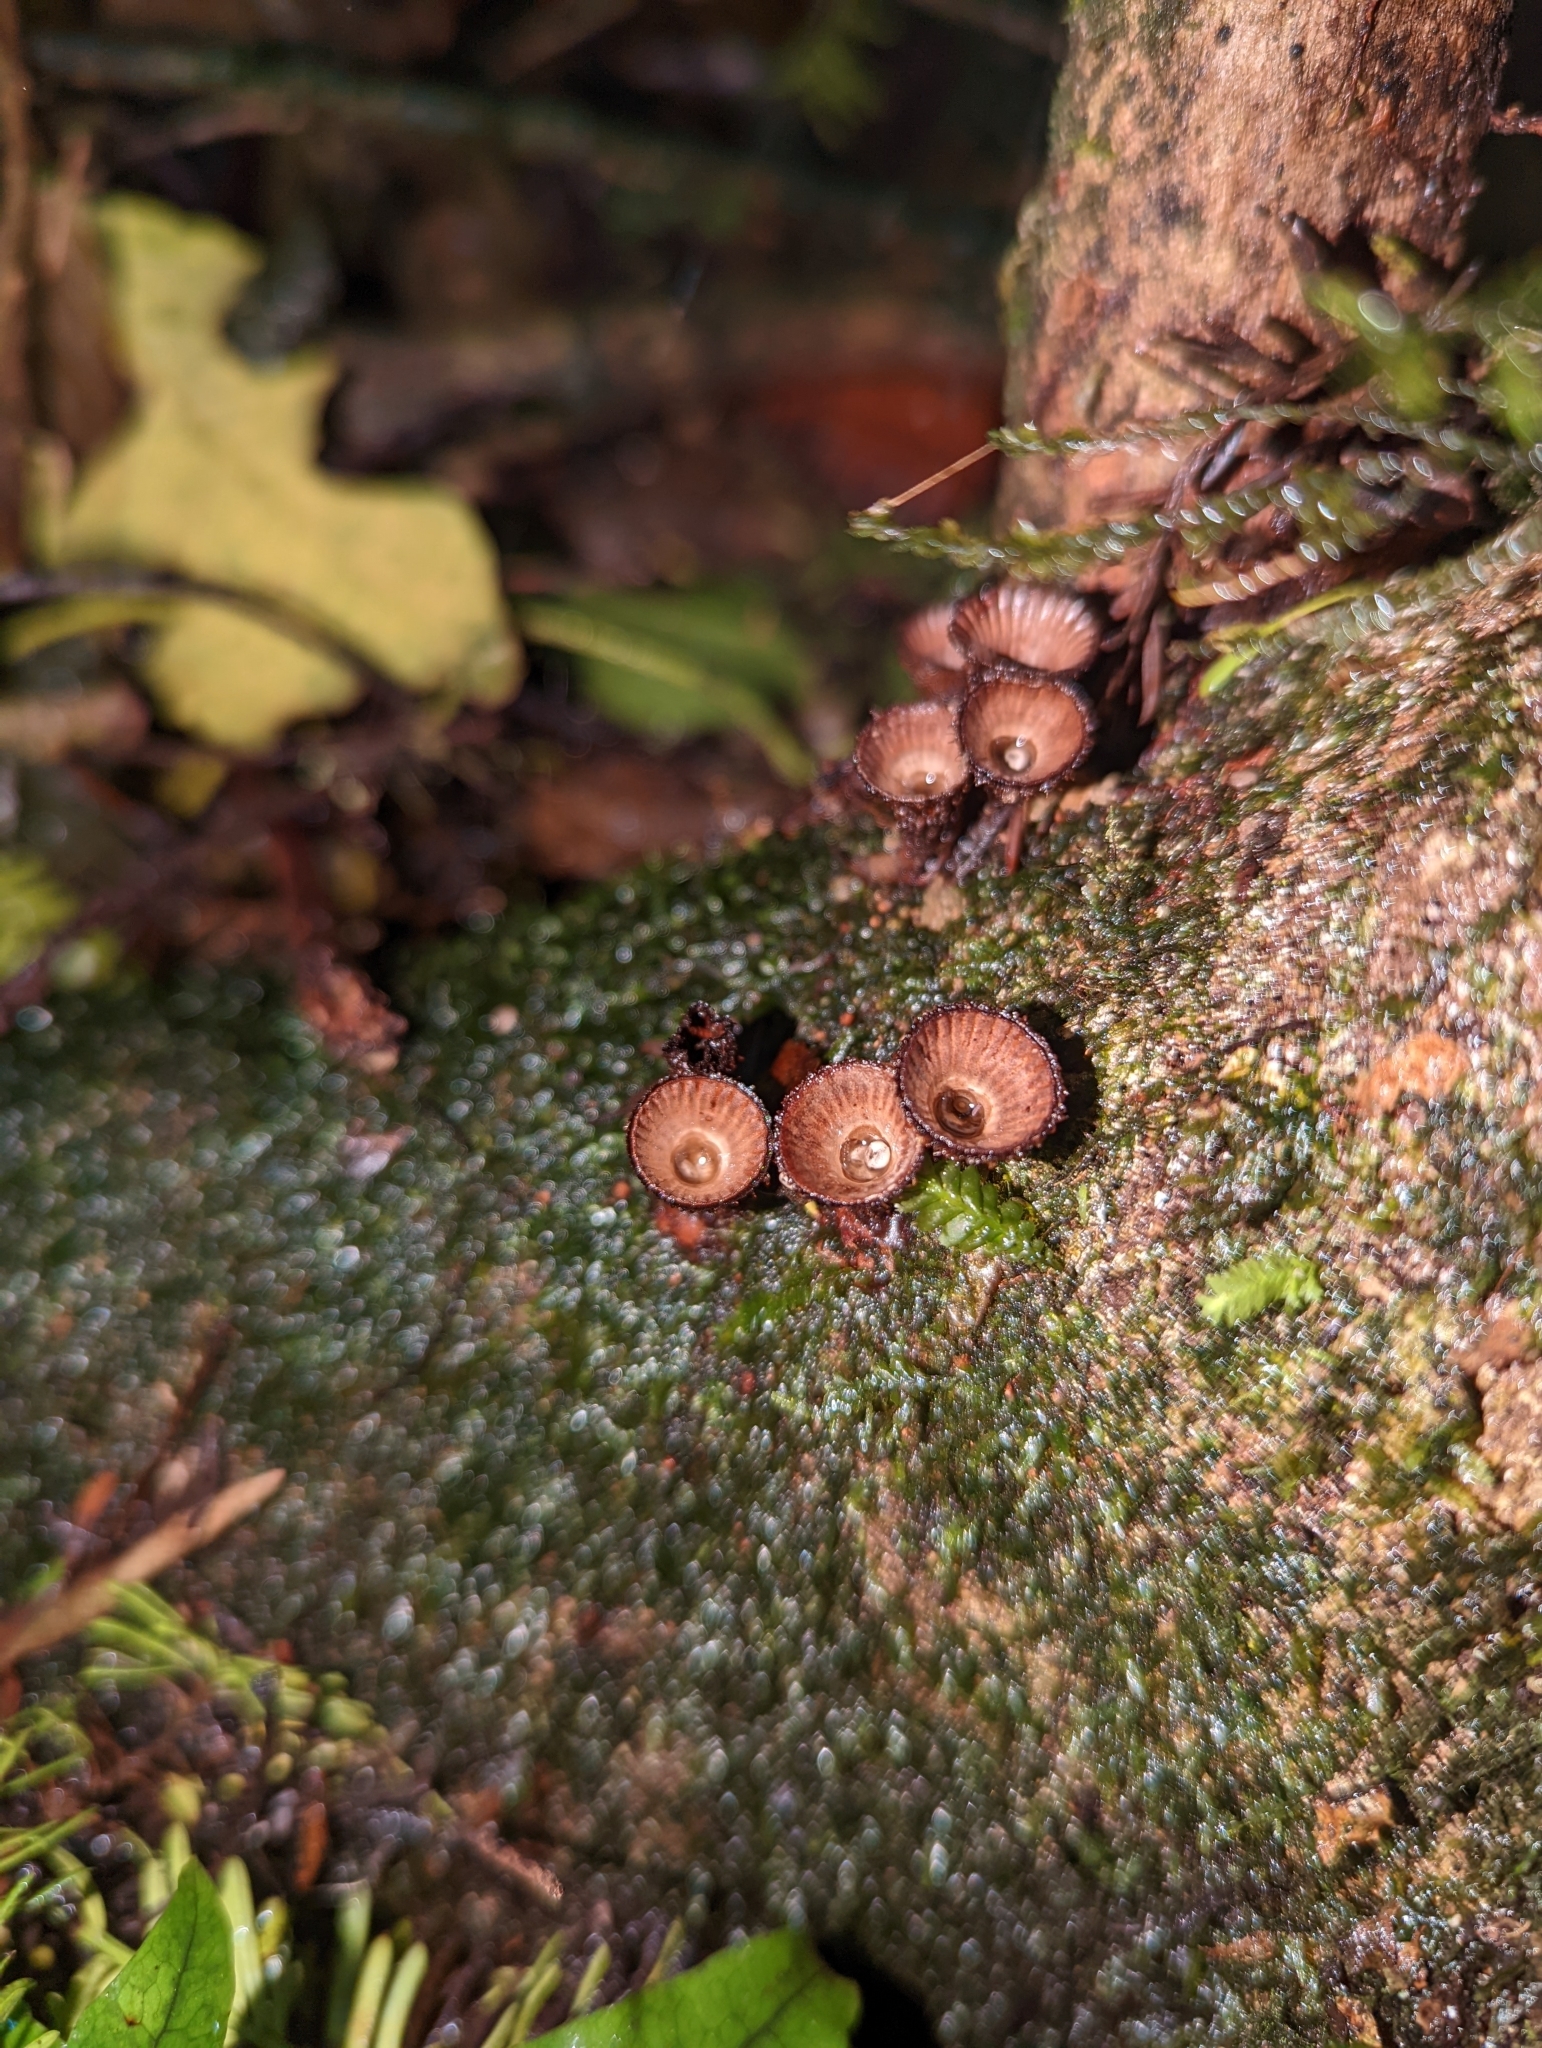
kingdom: Fungi
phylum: Basidiomycota
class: Agaricomycetes
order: Agaricales
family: Agaricaceae
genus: Cyathus
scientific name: Cyathus novae-zeelandiae
